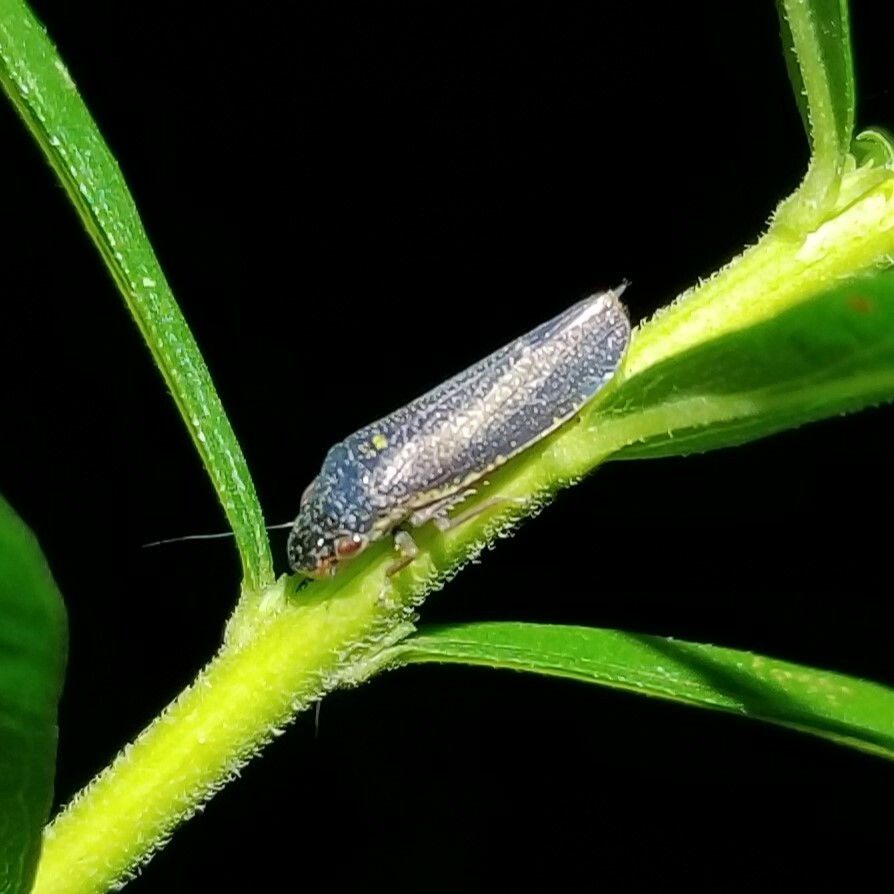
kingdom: Animalia
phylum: Arthropoda
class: Insecta
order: Hemiptera
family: Cicadellidae
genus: Paraulacizes
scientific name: Paraulacizes irrorata
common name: Speckled sharpshooter
